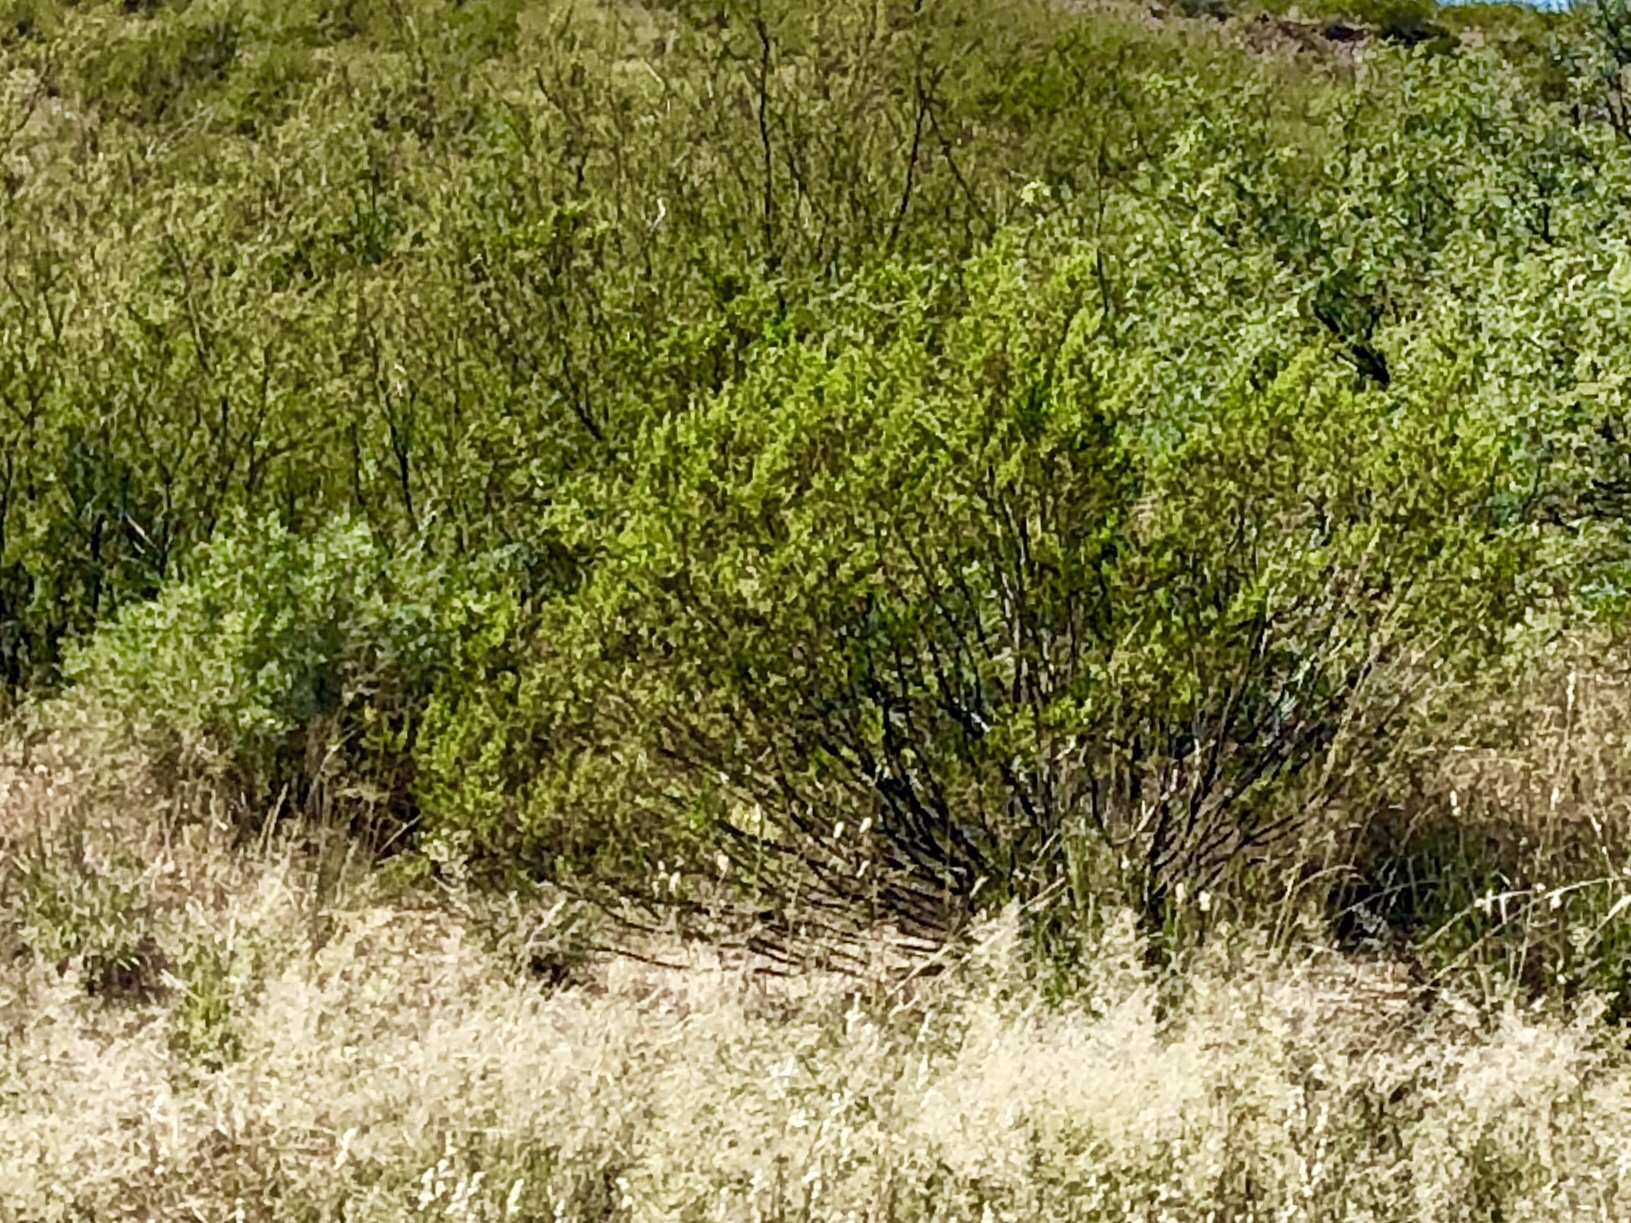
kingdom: Plantae
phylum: Tracheophyta
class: Magnoliopsida
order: Zygophyllales
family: Zygophyllaceae
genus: Larrea
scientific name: Larrea tridentata
